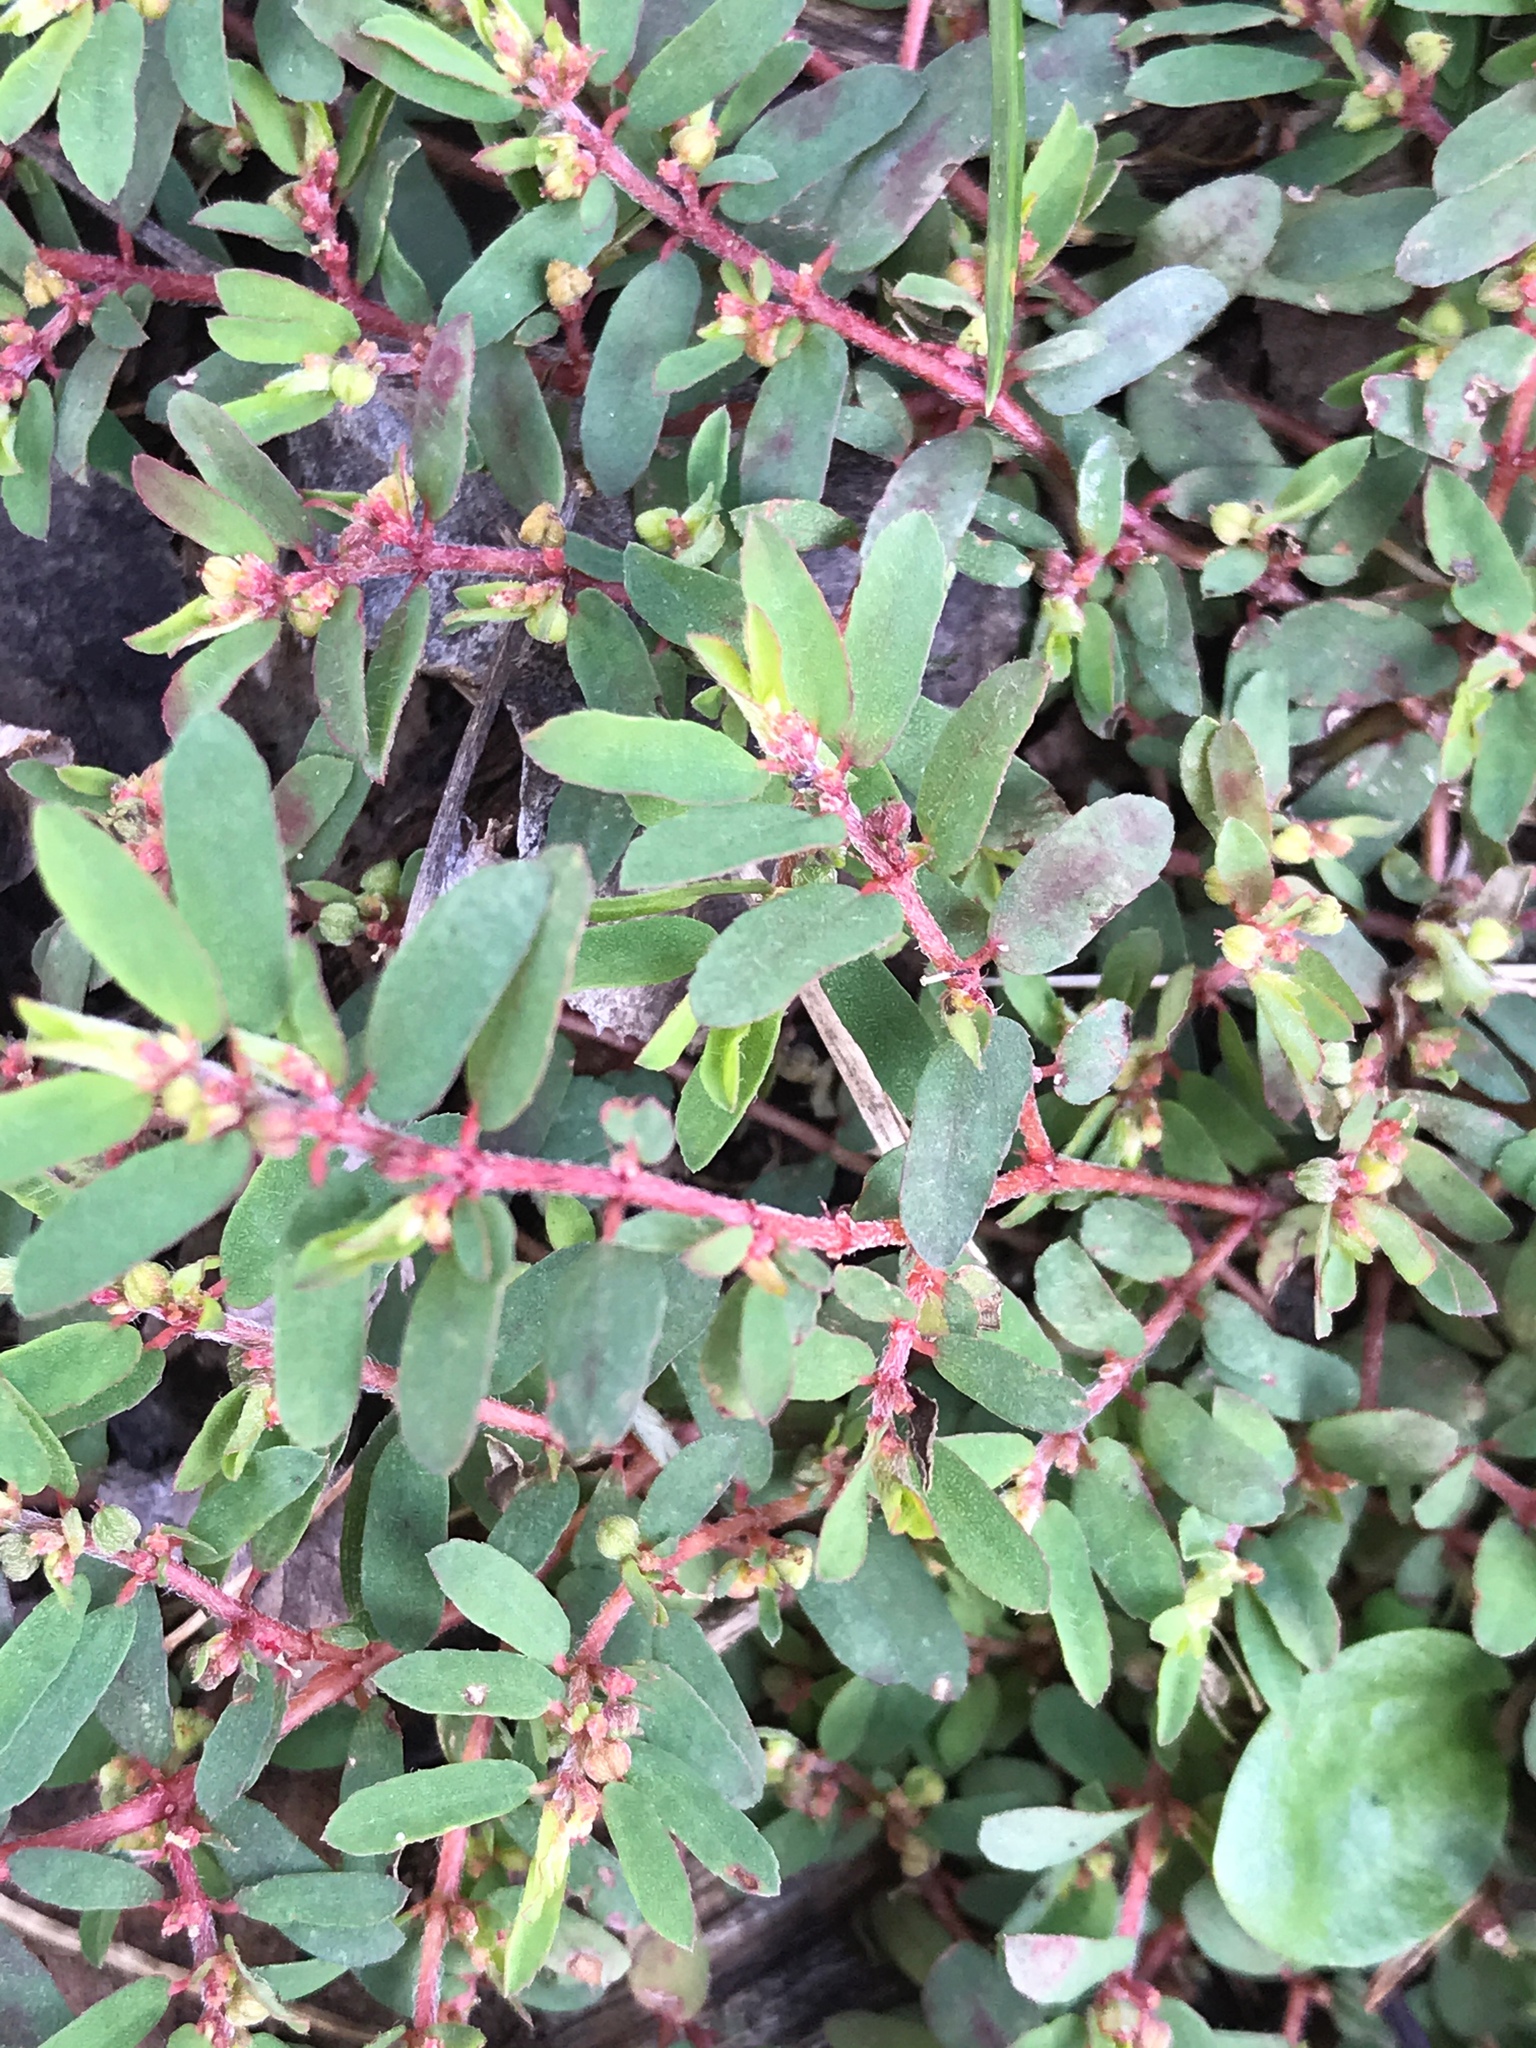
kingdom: Plantae
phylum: Tracheophyta
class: Magnoliopsida
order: Malpighiales
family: Euphorbiaceae
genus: Euphorbia
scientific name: Euphorbia maculata
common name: Spotted spurge
